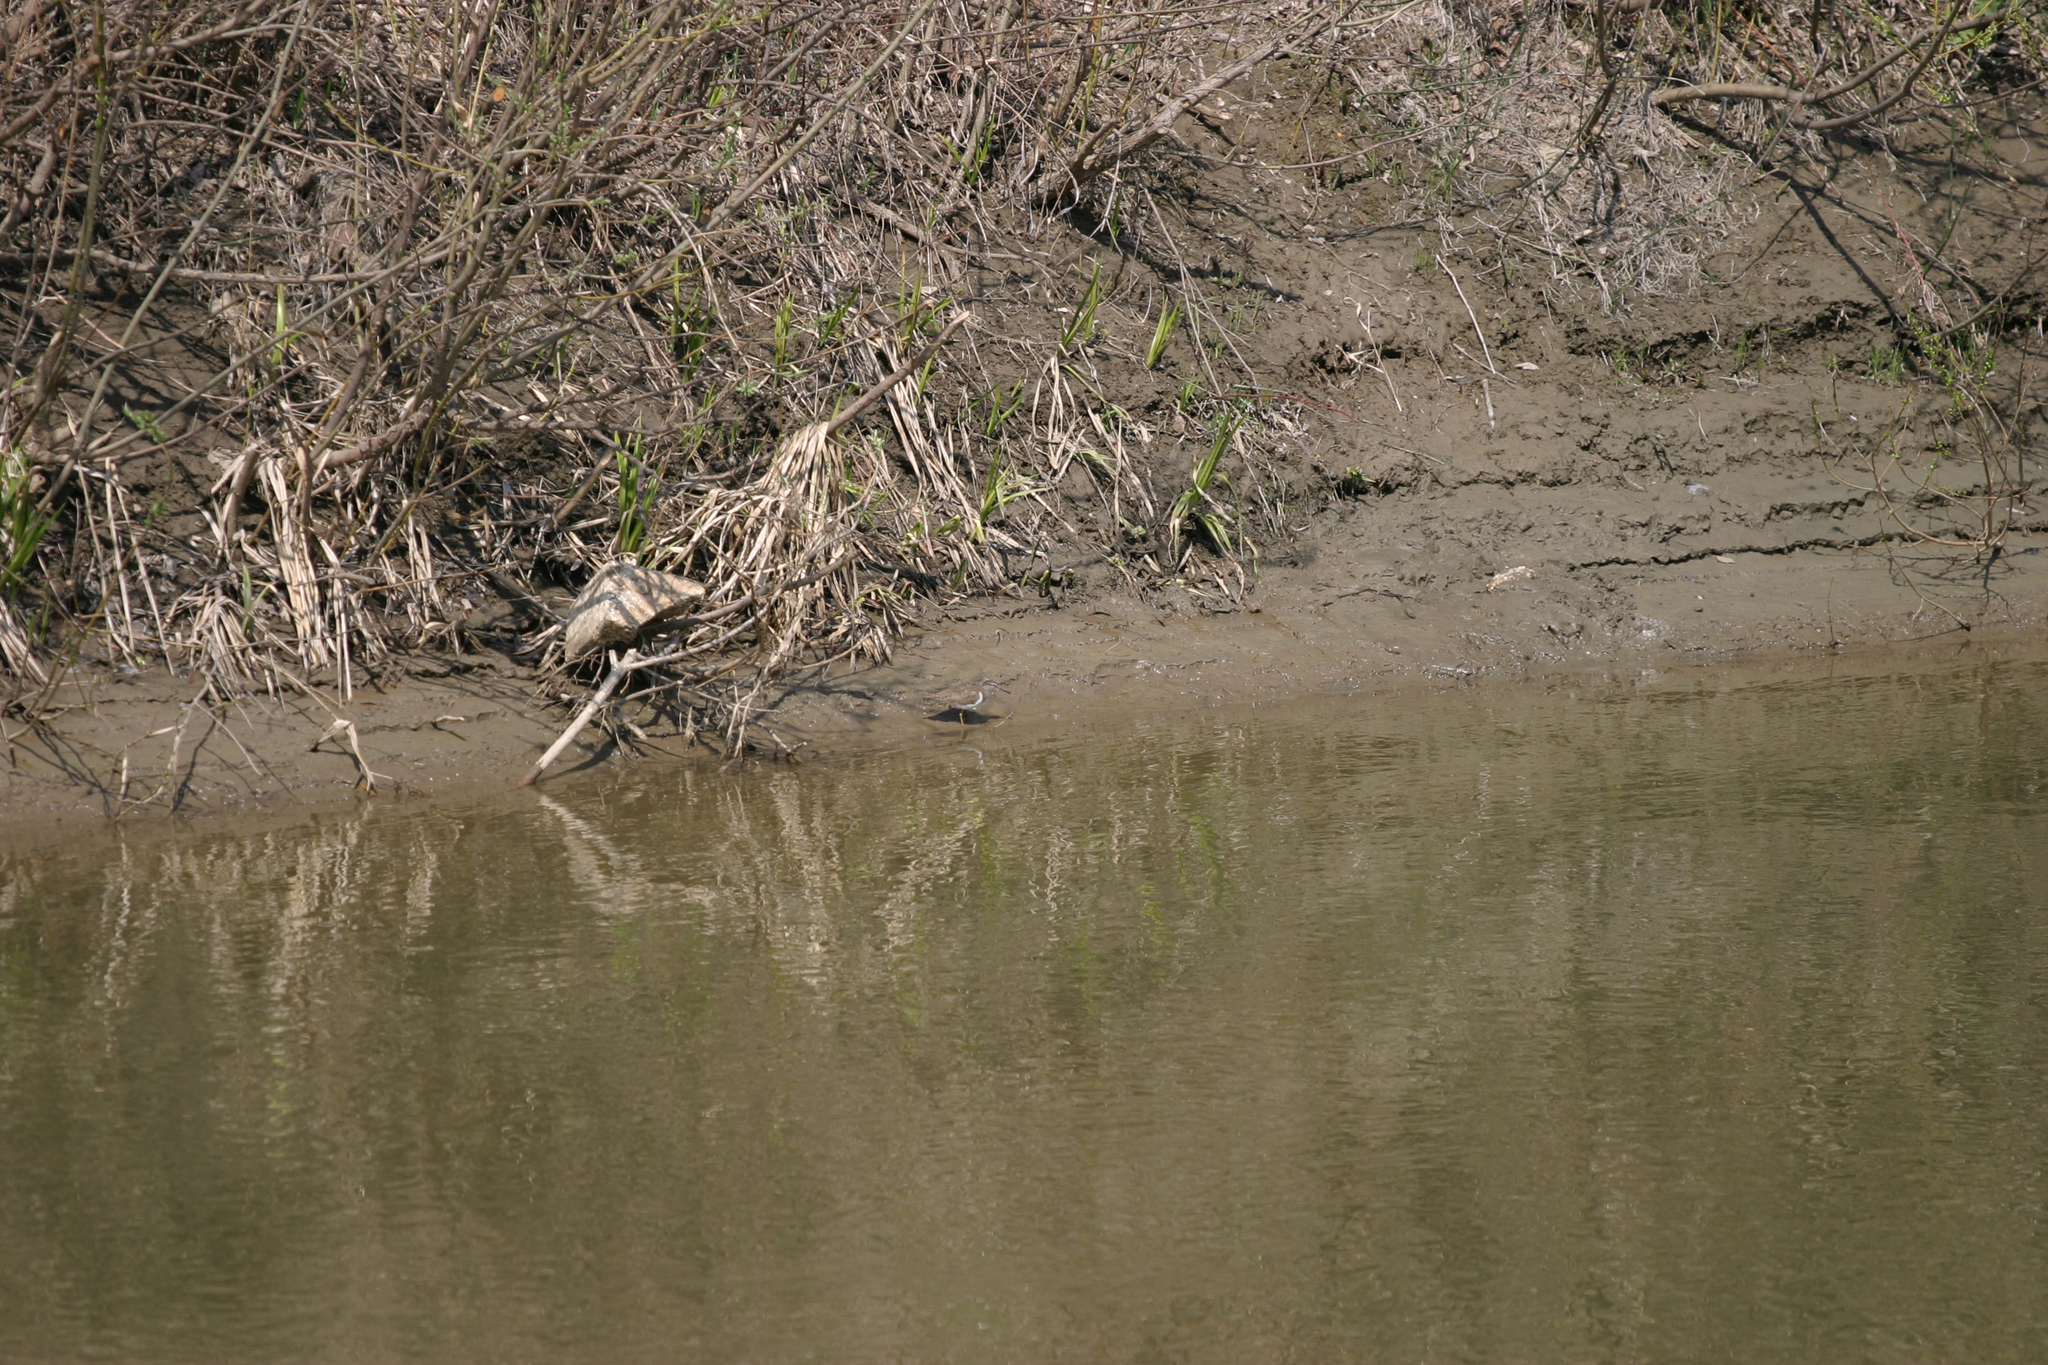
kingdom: Animalia
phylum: Chordata
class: Aves
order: Charadriiformes
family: Scolopacidae
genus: Actitis
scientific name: Actitis hypoleucos
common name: Common sandpiper
